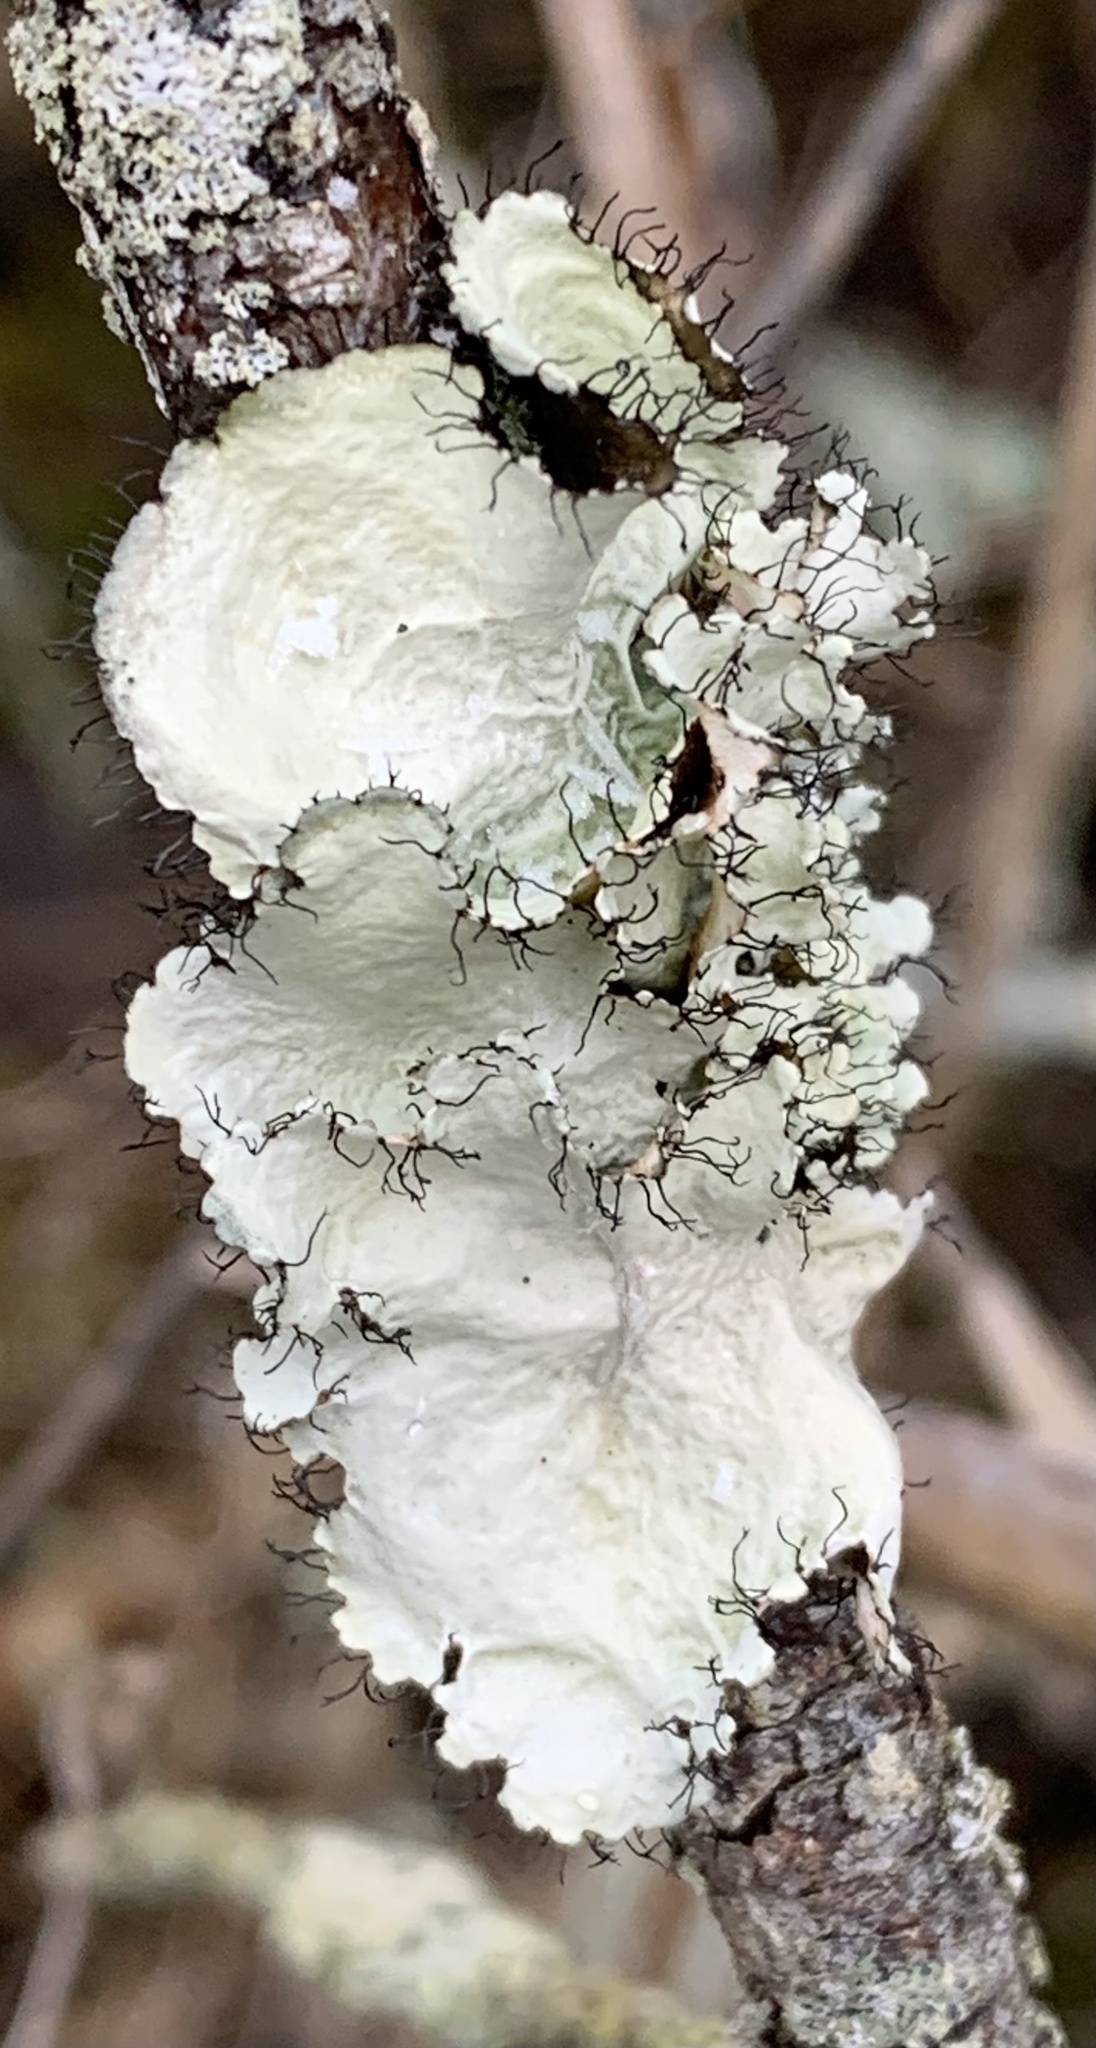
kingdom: Fungi
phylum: Ascomycota
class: Lecanoromycetes
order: Lecanorales
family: Parmeliaceae
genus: Parmotrema
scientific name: Parmotrema hypotropum
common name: Powdered ruffle lichen
